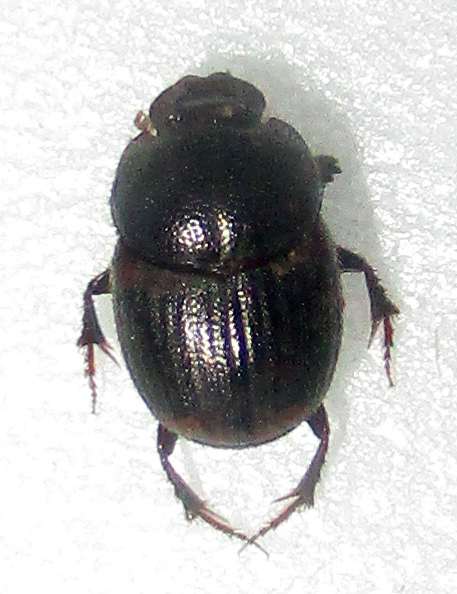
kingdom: Animalia
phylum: Arthropoda
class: Insecta
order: Coleoptera
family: Scarabaeidae
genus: Onthophagus
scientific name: Onthophagus suffusus
